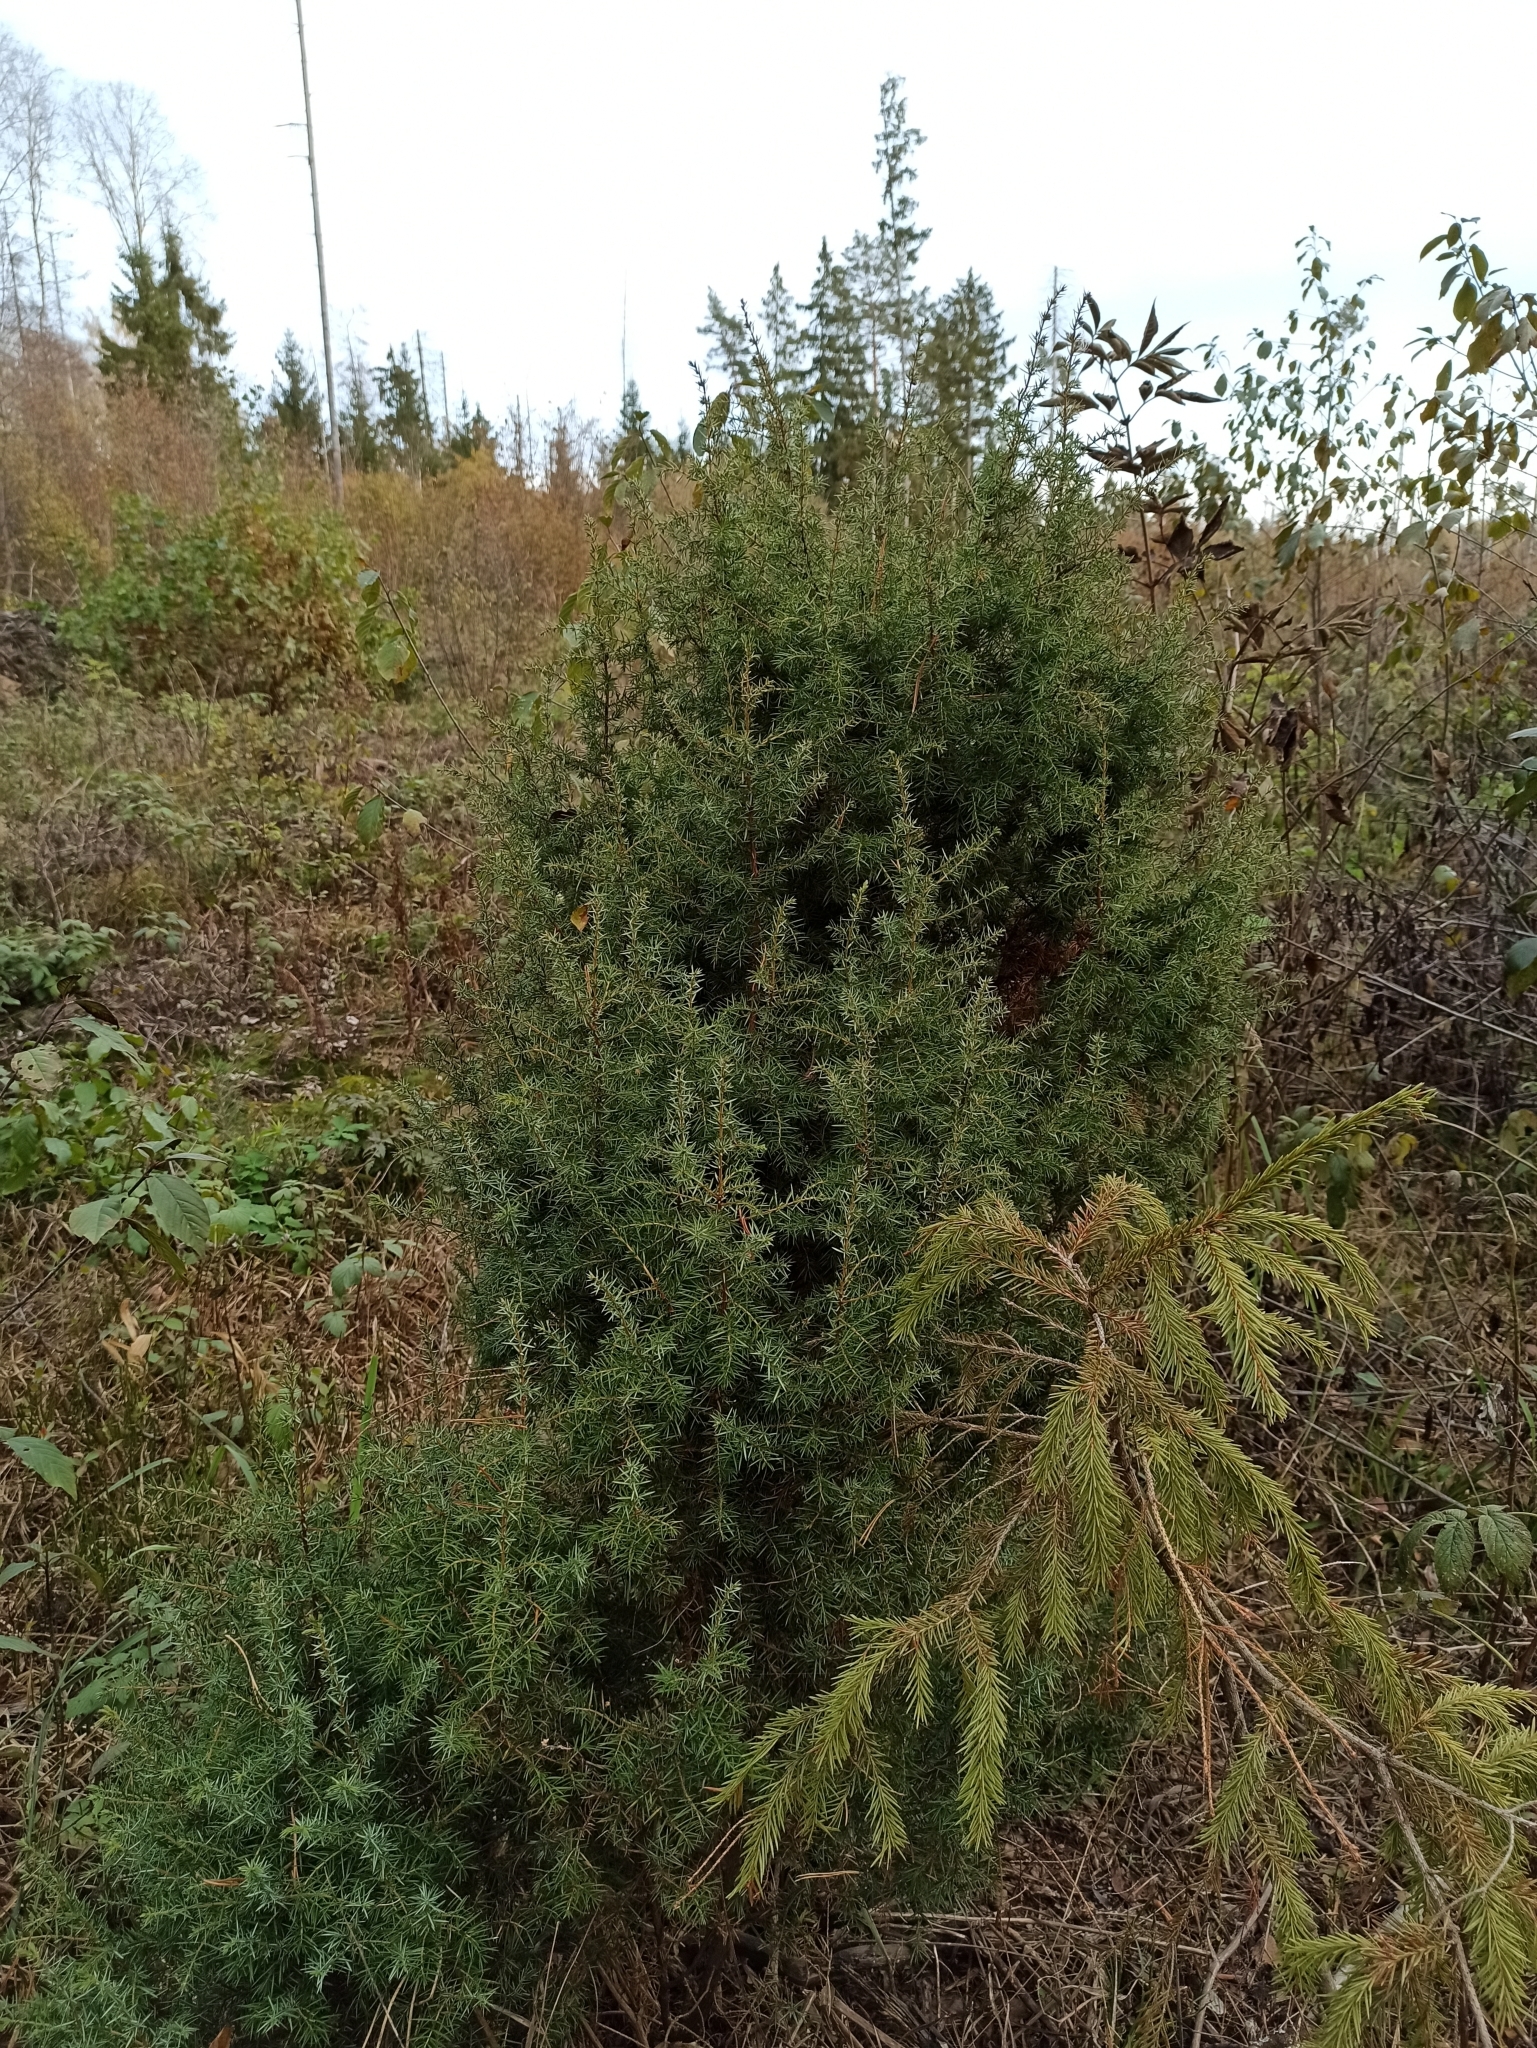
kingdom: Plantae
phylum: Tracheophyta
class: Pinopsida
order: Pinales
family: Cupressaceae
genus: Juniperus
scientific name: Juniperus communis
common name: Common juniper
